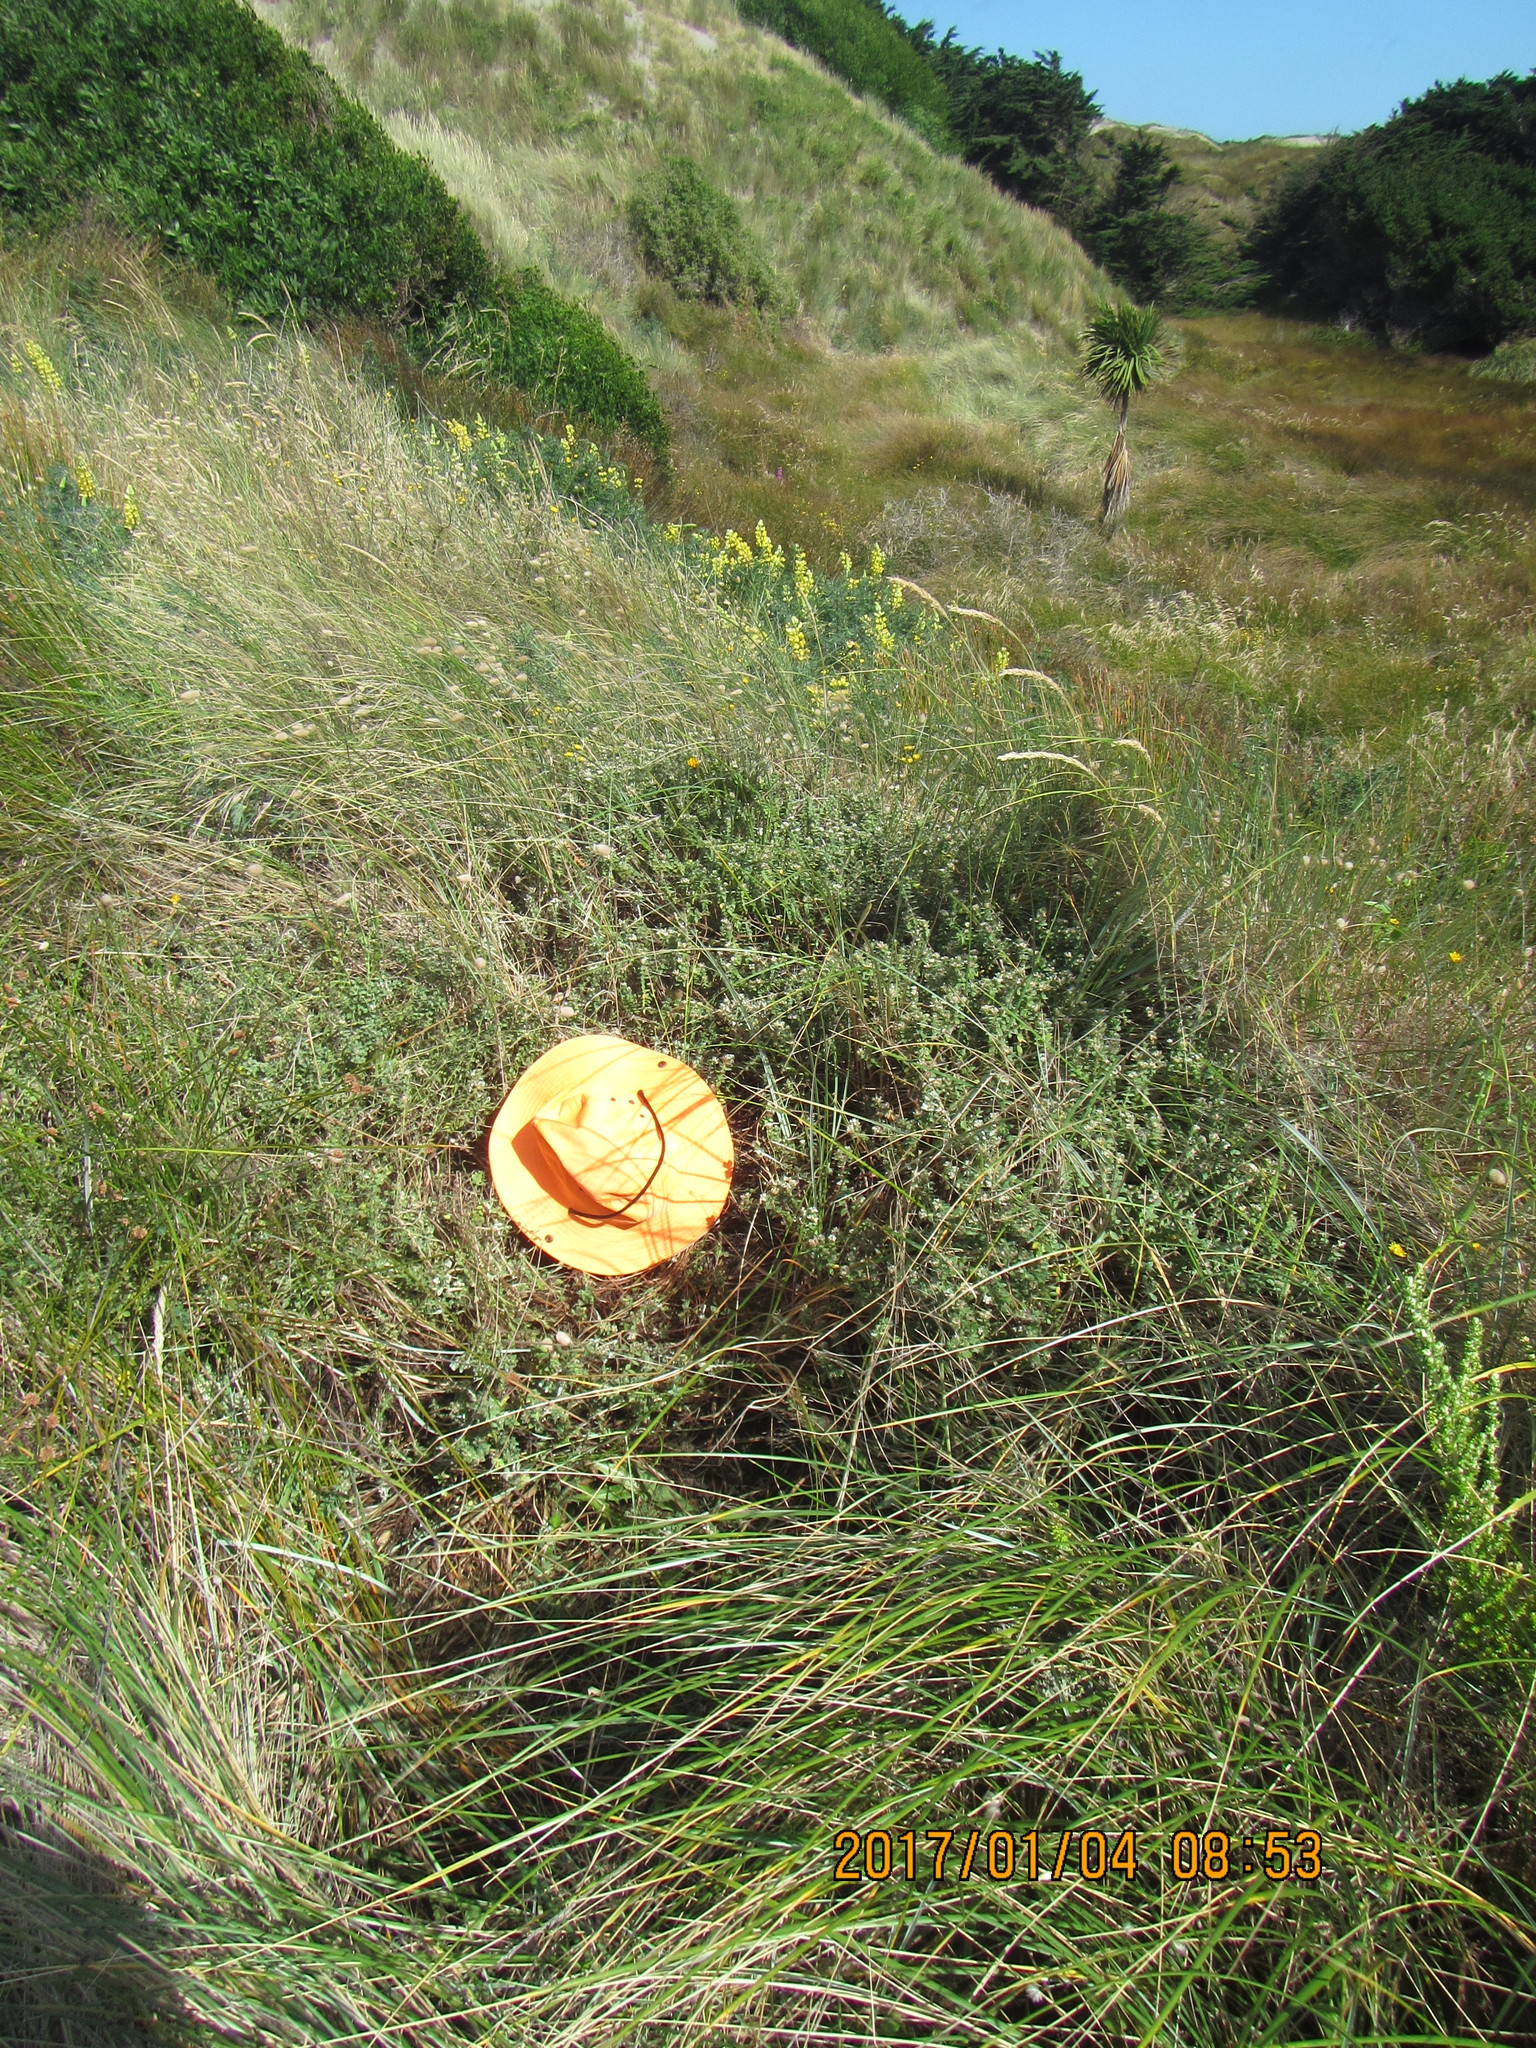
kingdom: Plantae
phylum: Tracheophyta
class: Magnoliopsida
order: Malvales
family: Thymelaeaceae
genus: Pimelea
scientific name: Pimelea villosa
